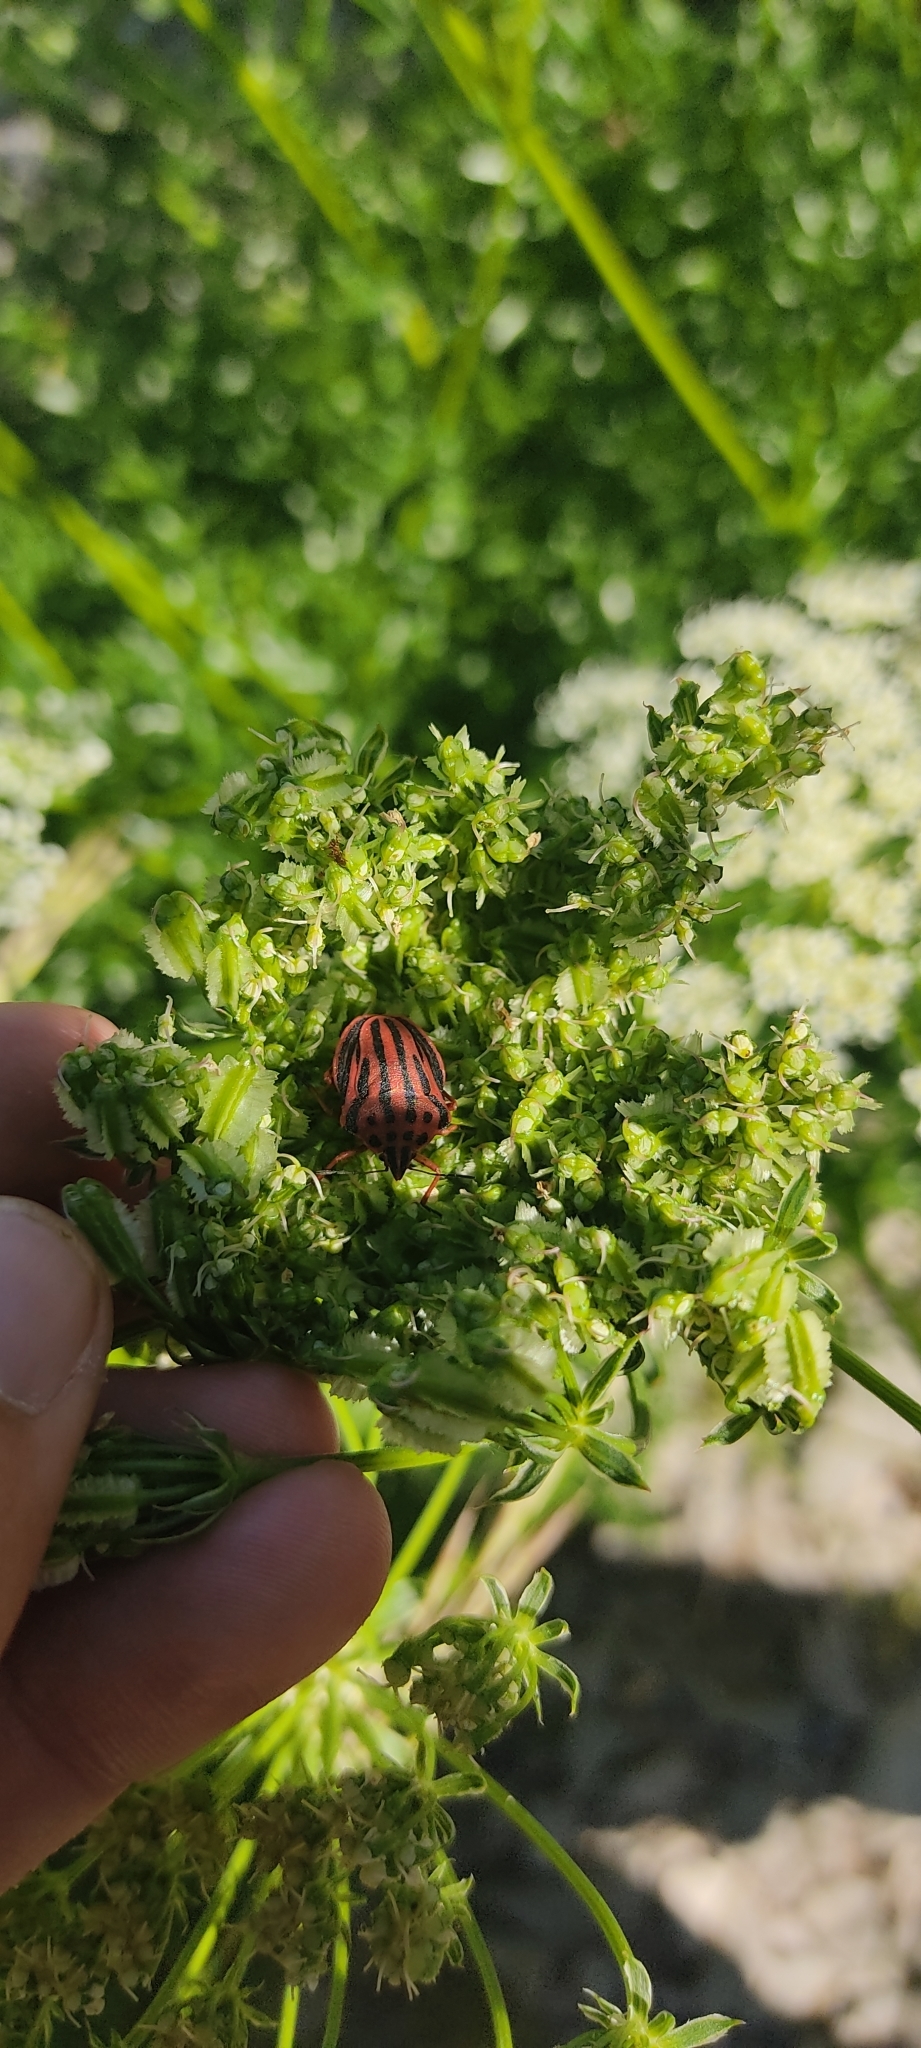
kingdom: Animalia
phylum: Arthropoda
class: Insecta
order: Hemiptera
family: Pentatomidae
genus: Graphosoma
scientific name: Graphosoma semipunctatum
